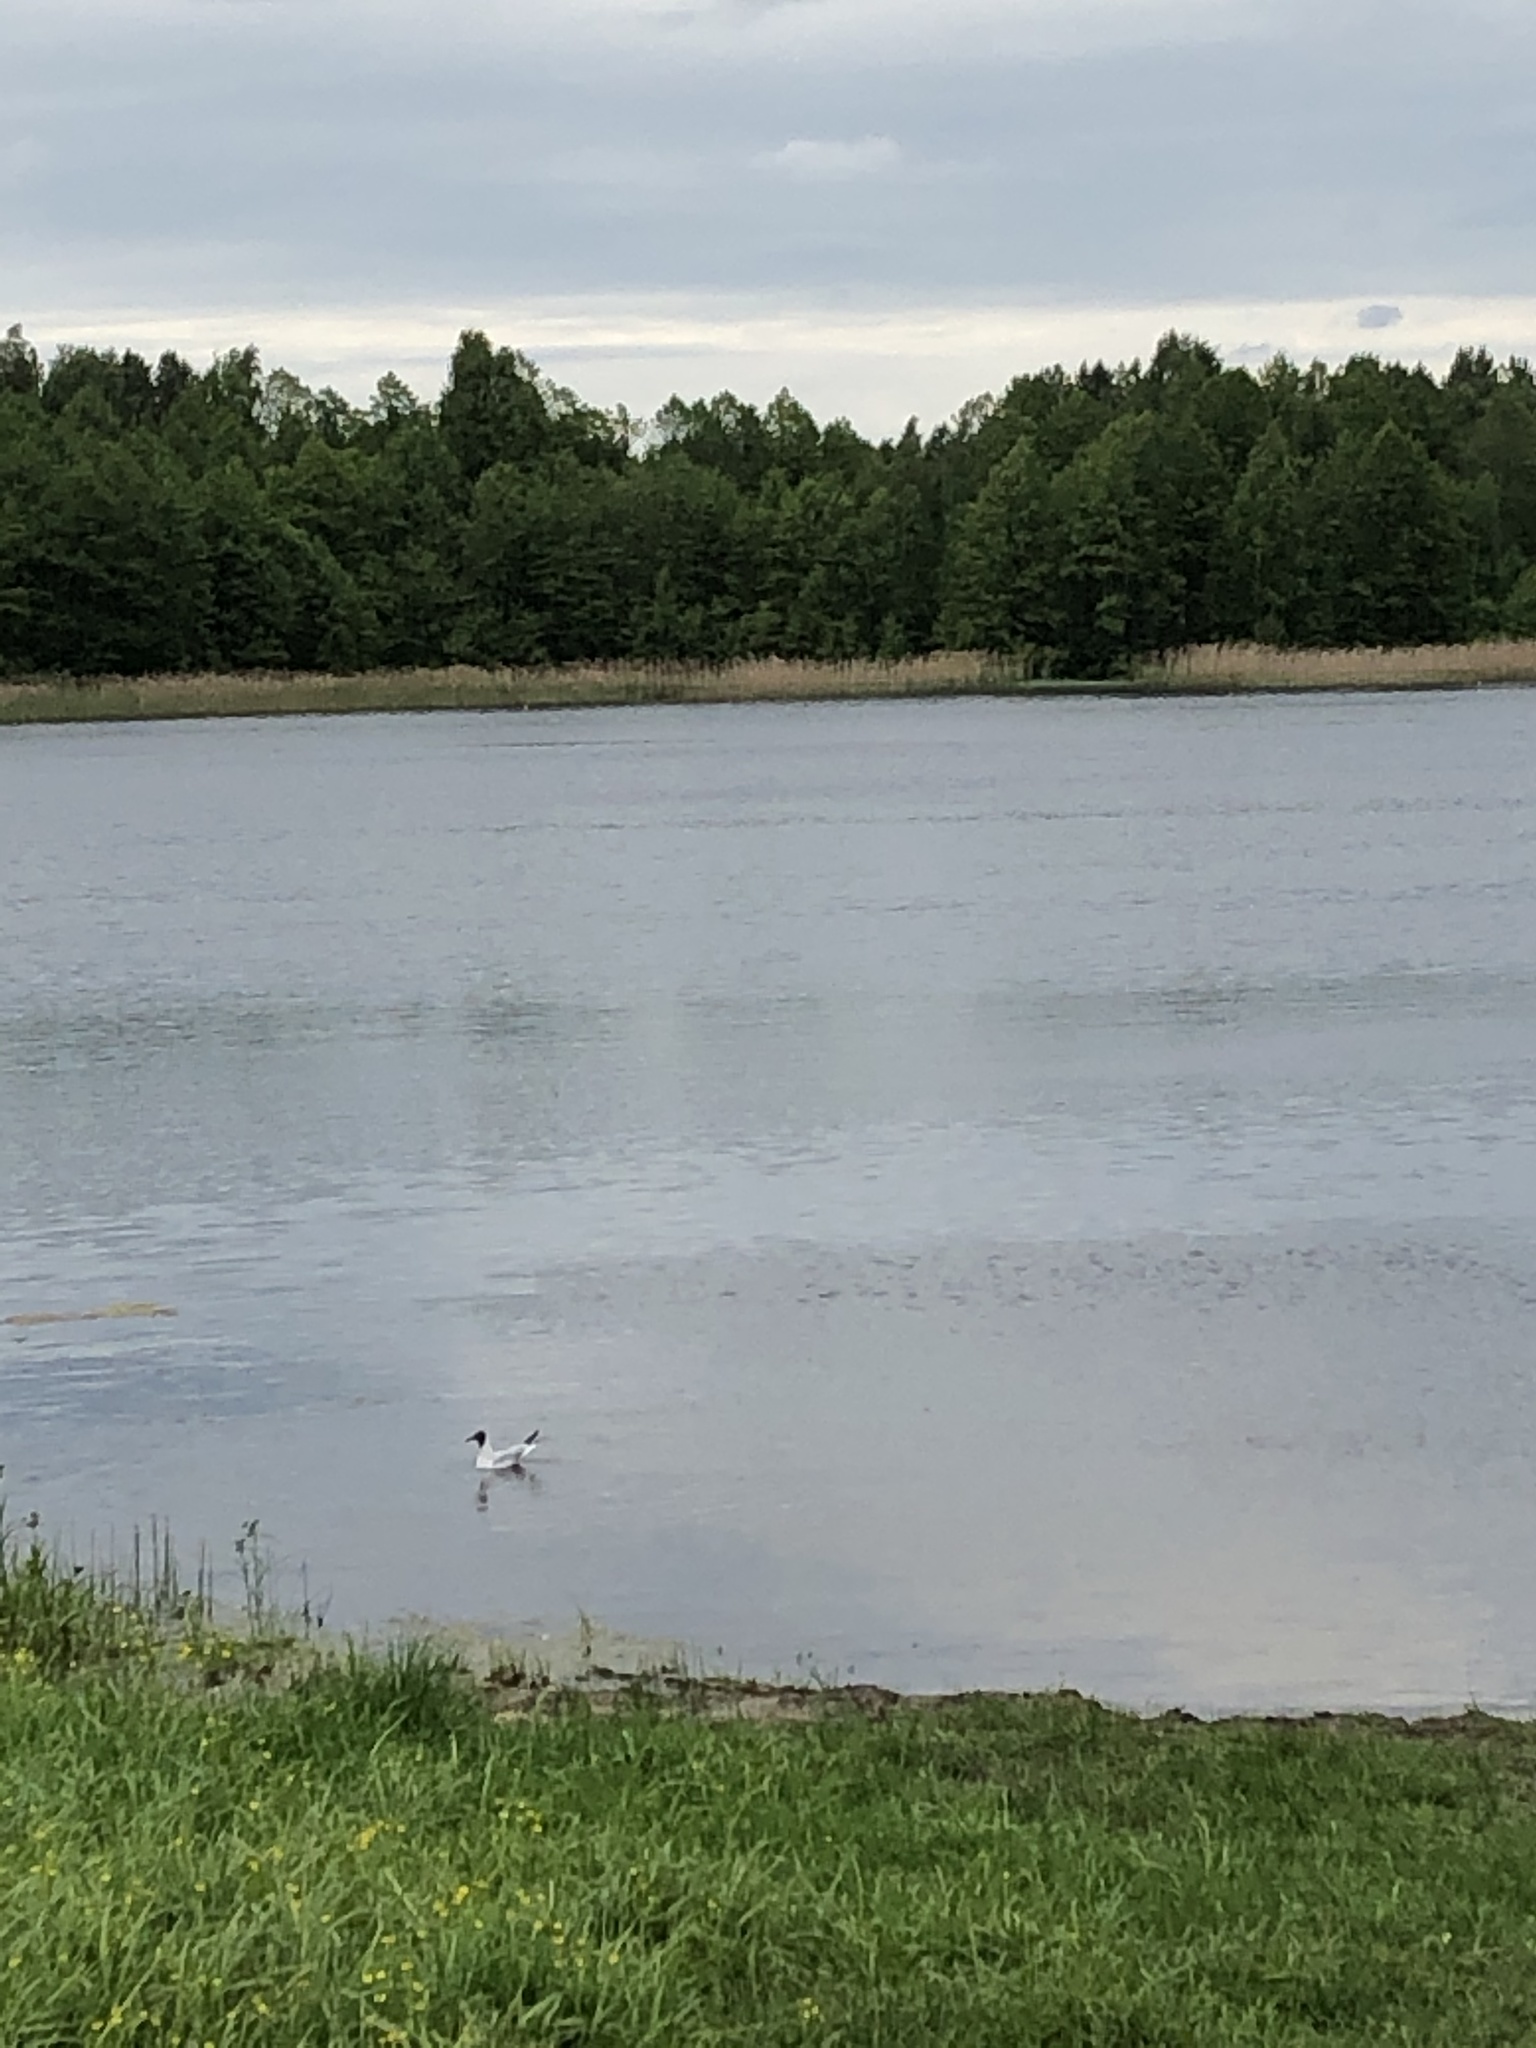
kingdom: Animalia
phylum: Chordata
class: Aves
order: Charadriiformes
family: Laridae
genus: Chroicocephalus
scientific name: Chroicocephalus ridibundus
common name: Black-headed gull
